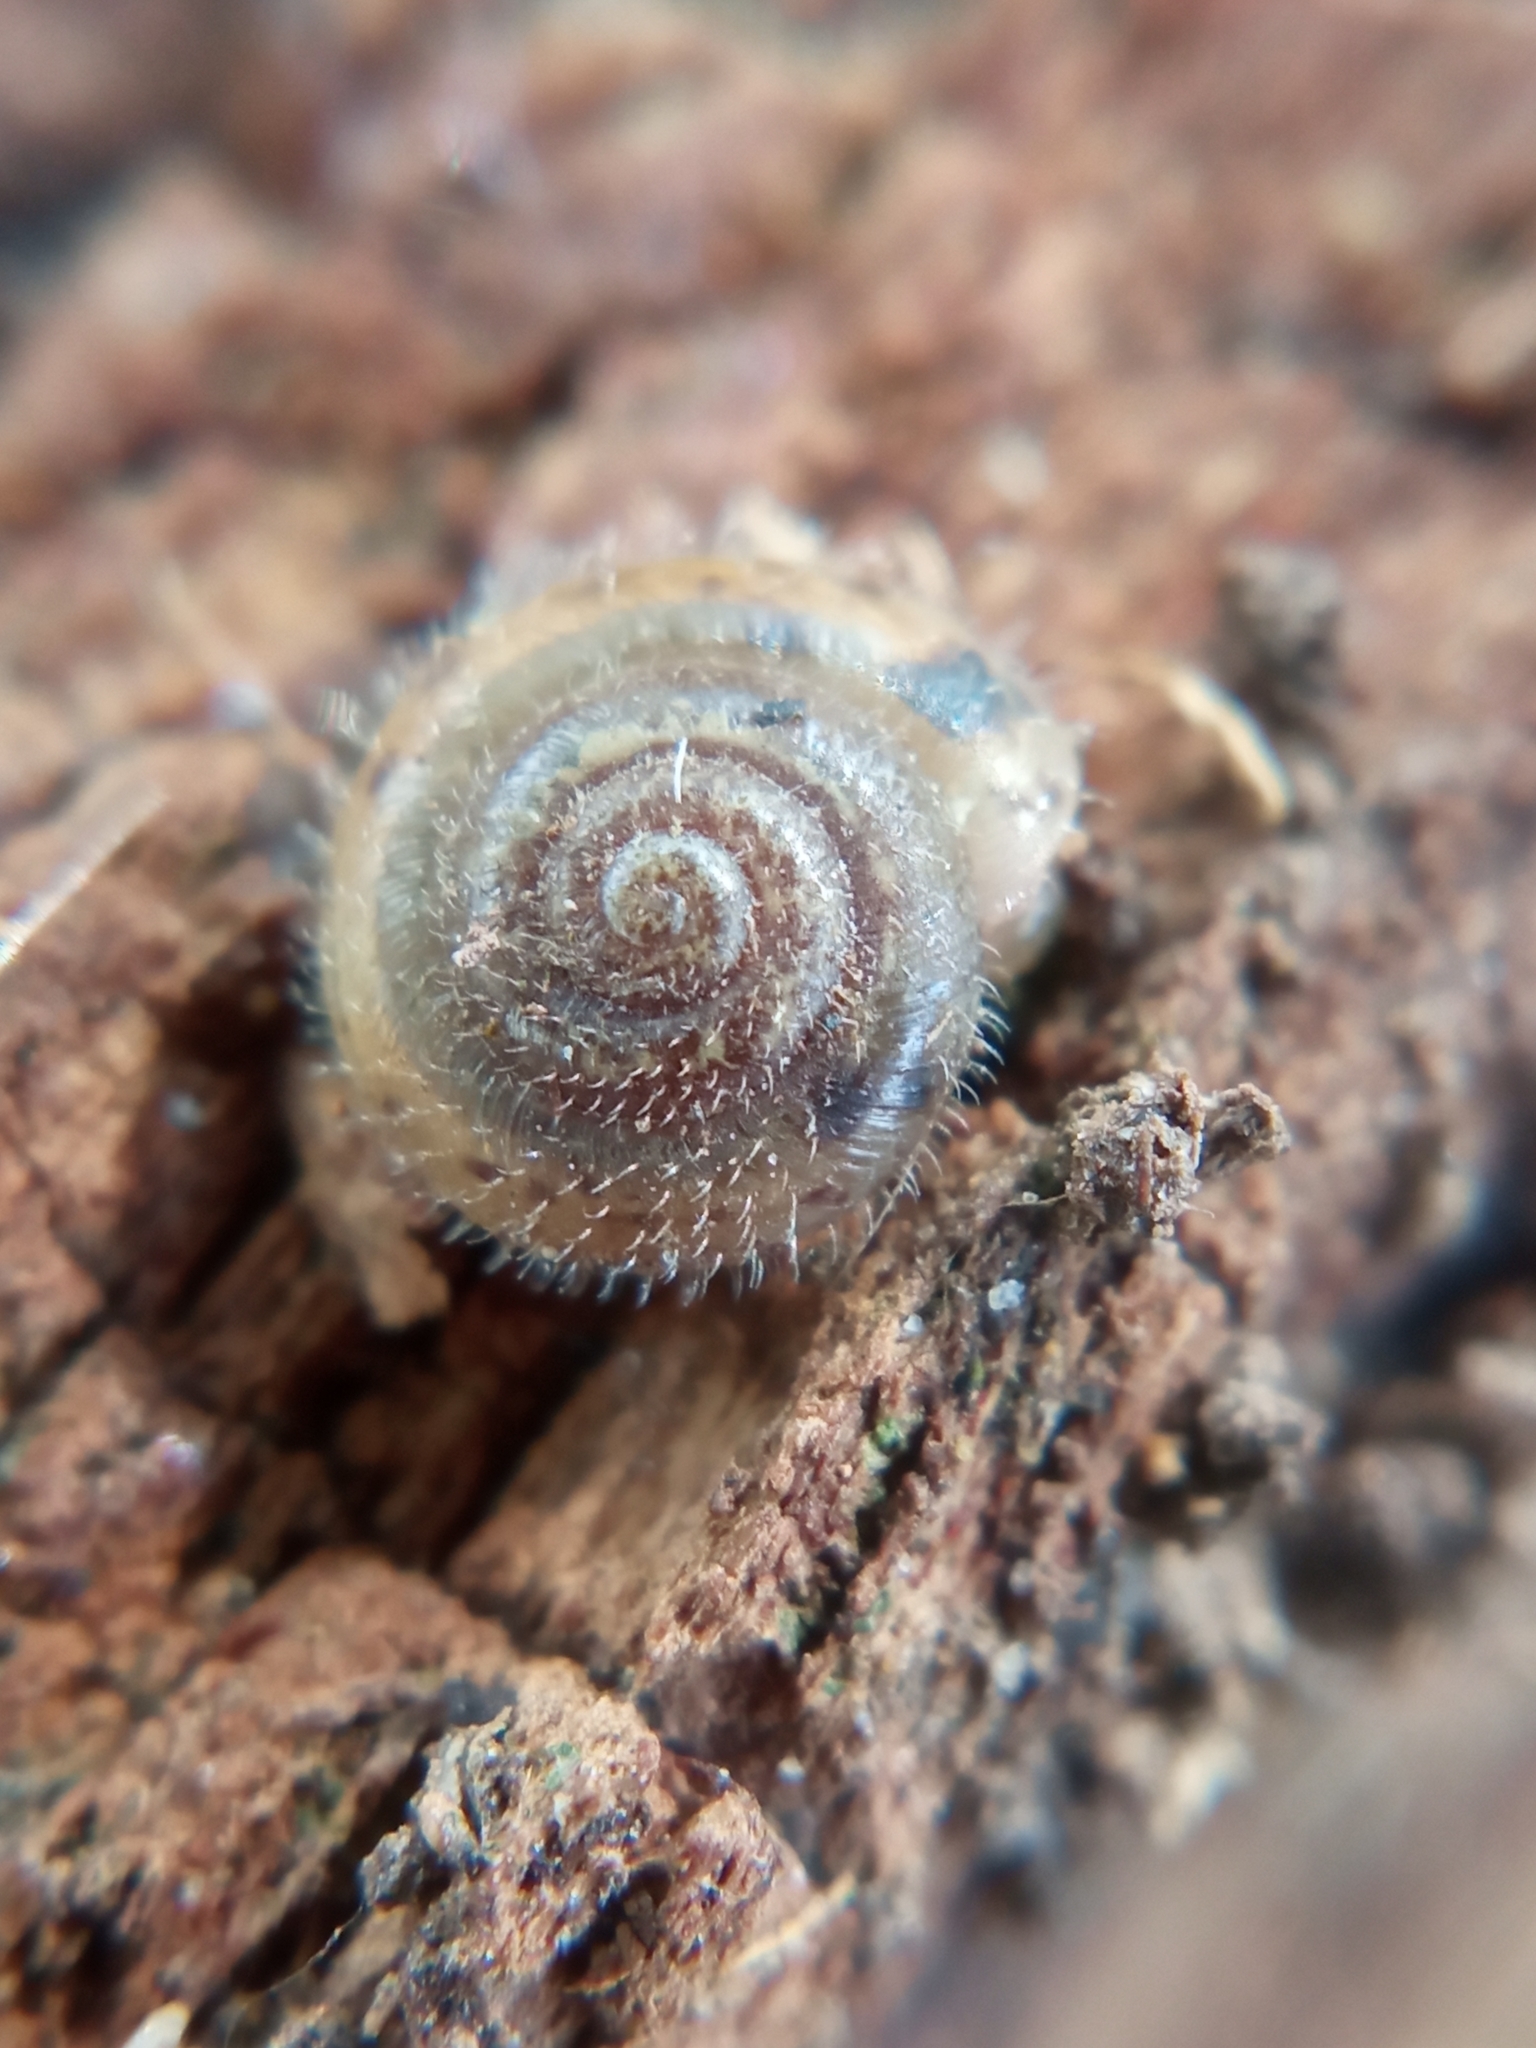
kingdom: Animalia
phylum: Mollusca
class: Gastropoda
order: Stylommatophora
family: Hygromiidae
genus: Trochulus
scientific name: Trochulus hispidus
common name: Hairy snail
